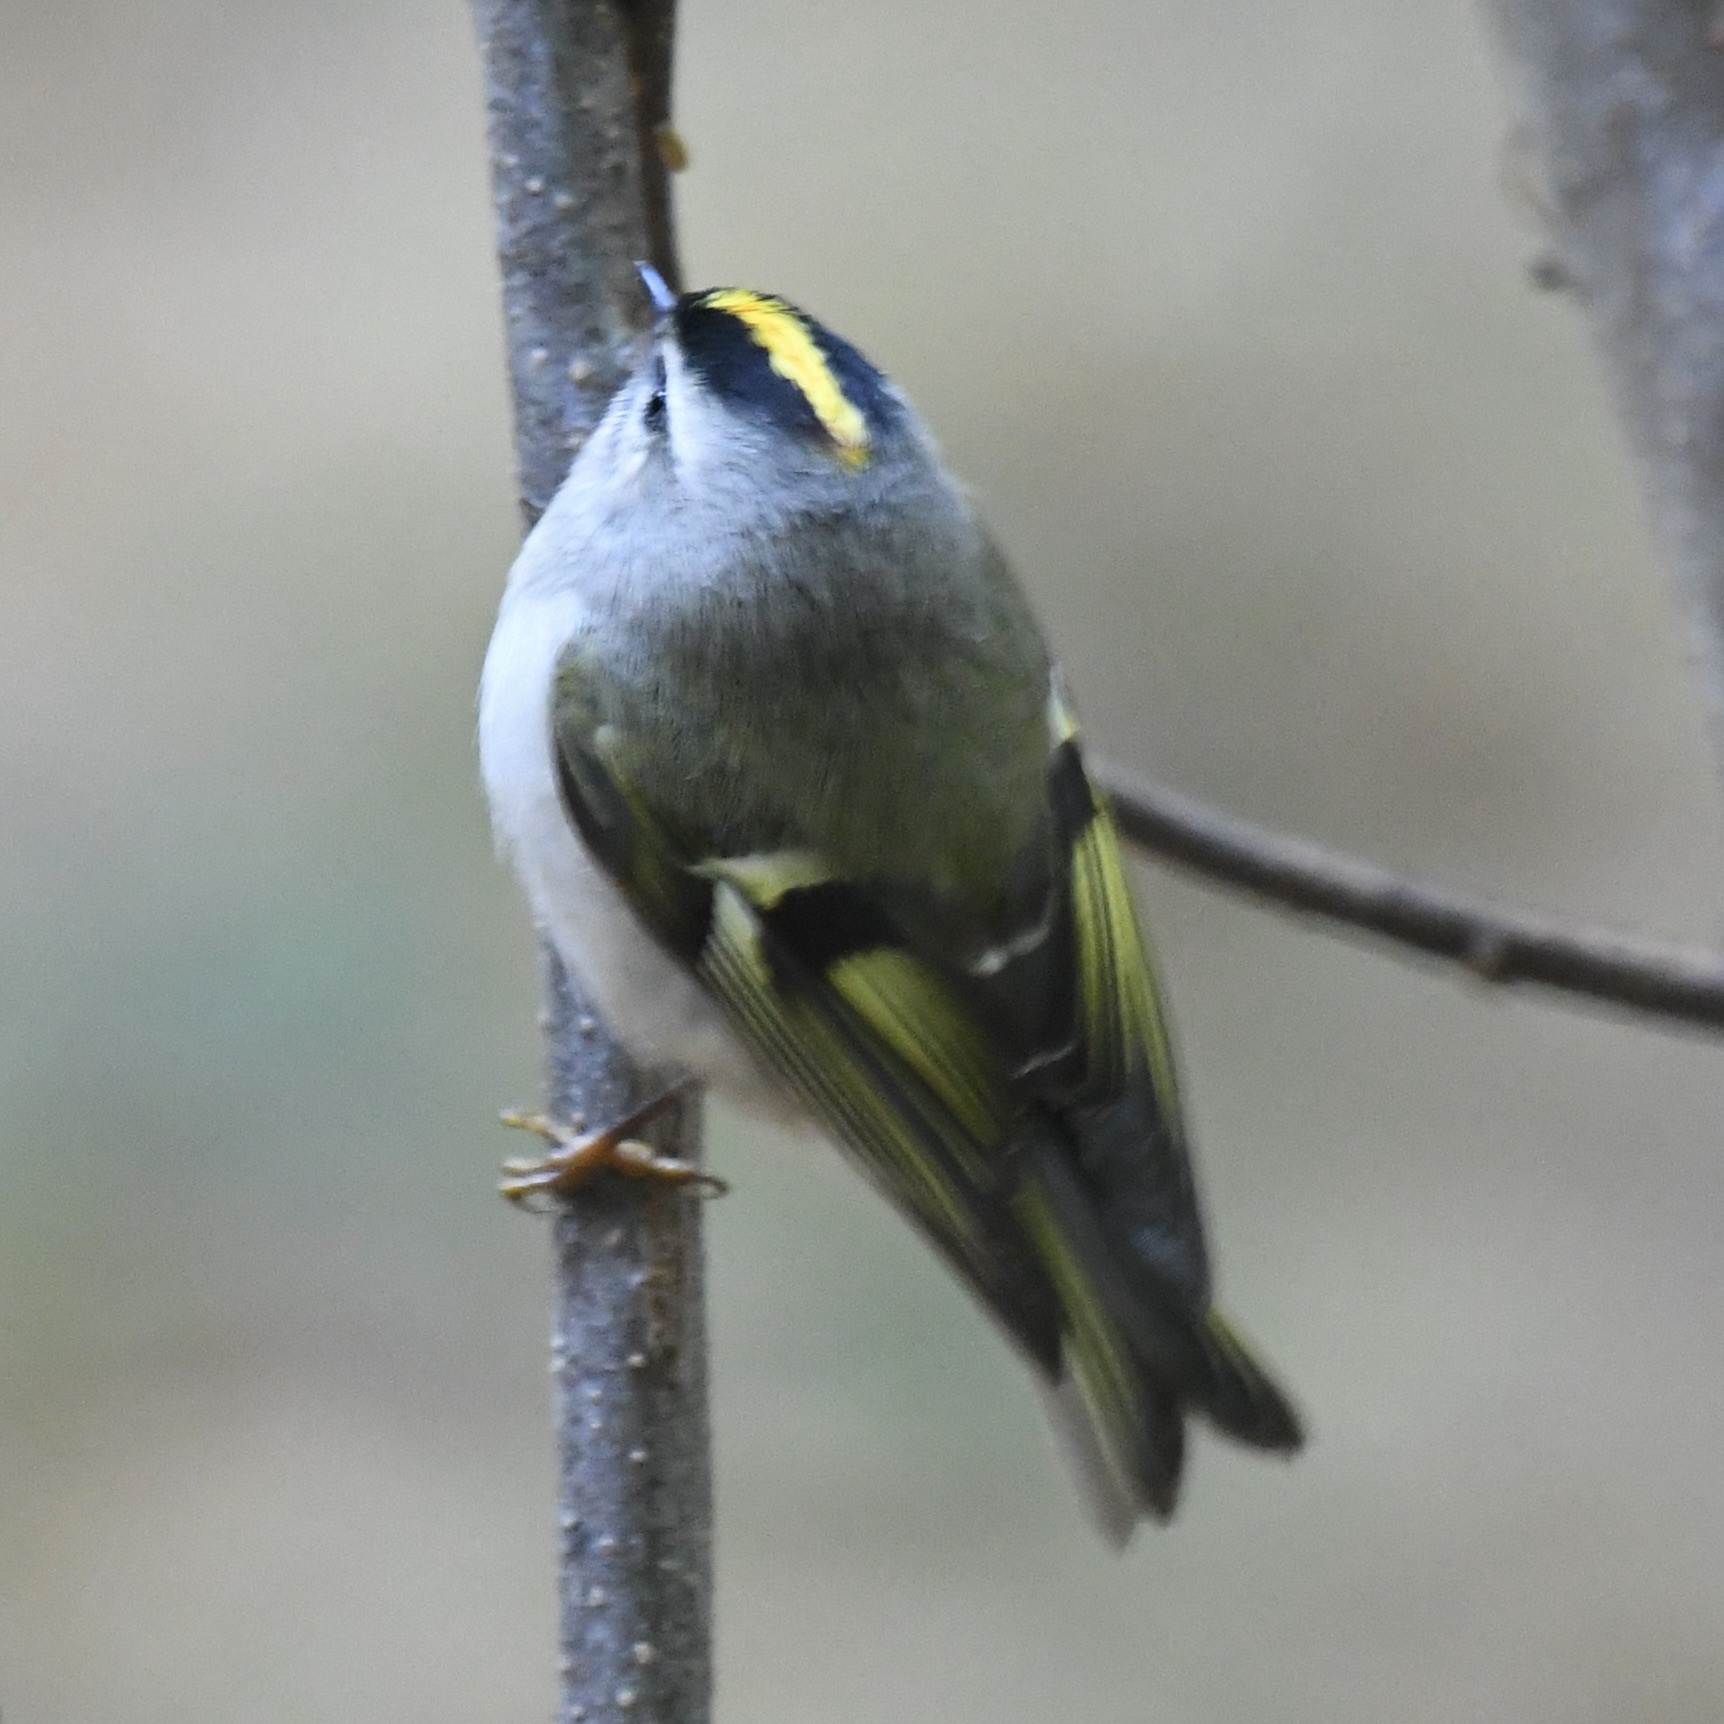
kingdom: Animalia
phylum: Chordata
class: Aves
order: Passeriformes
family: Regulidae
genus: Regulus
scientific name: Regulus satrapa
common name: Golden-crowned kinglet
